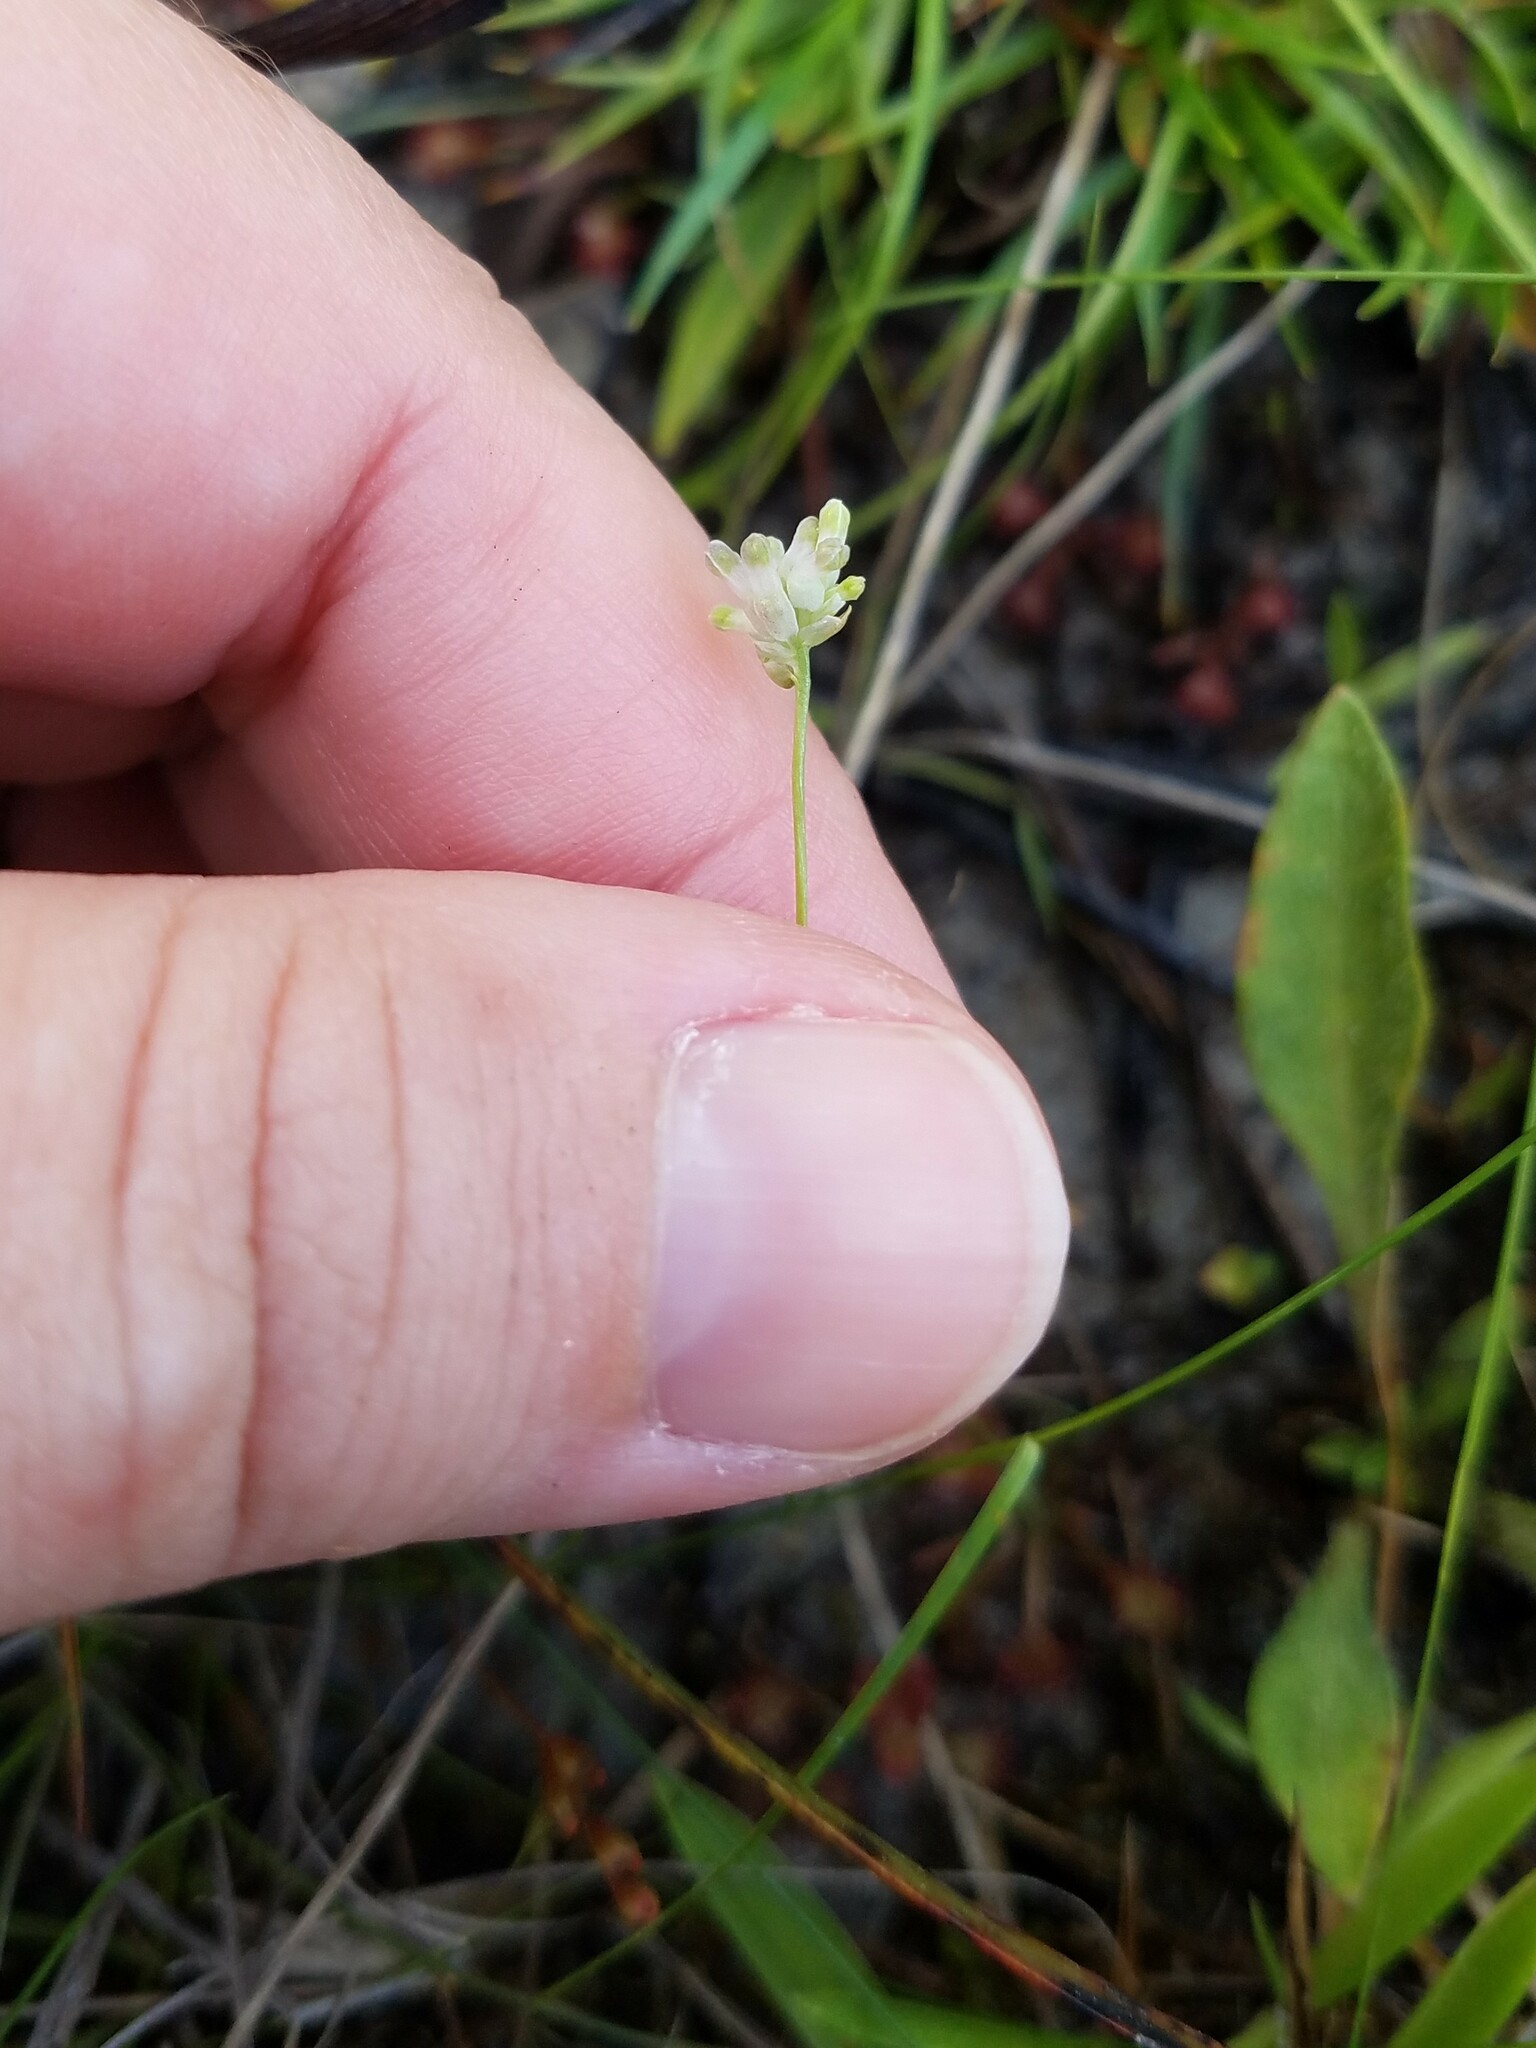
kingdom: Plantae
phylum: Tracheophyta
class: Liliopsida
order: Dioscoreales
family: Burmanniaceae
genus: Burmannia
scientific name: Burmannia capitata
